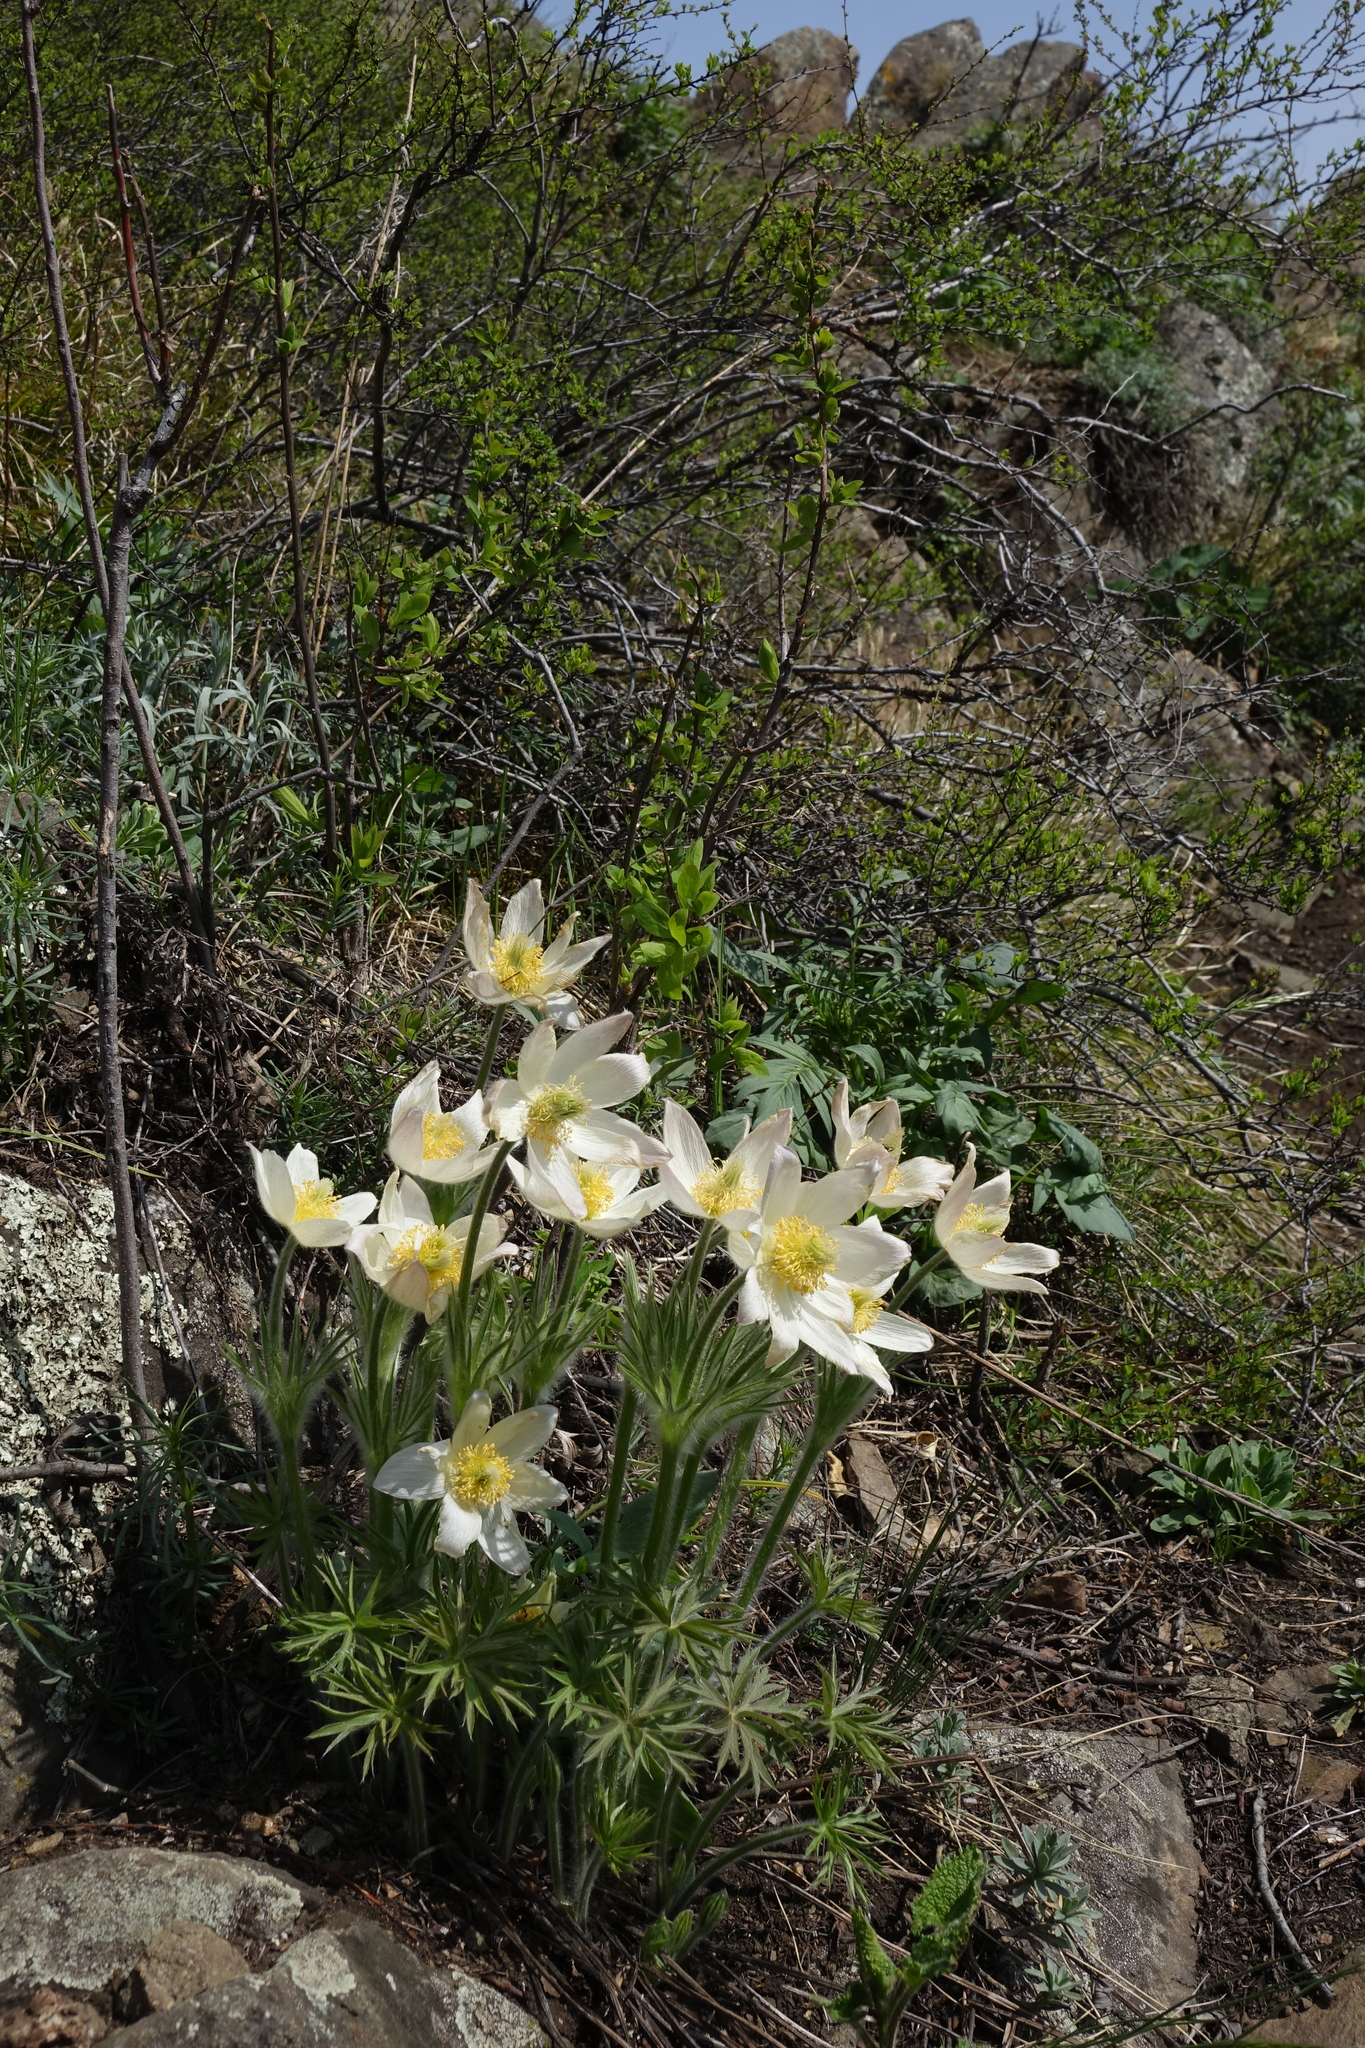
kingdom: Plantae
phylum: Tracheophyta
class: Magnoliopsida
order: Ranunculales
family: Ranunculaceae
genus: Pulsatilla
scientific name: Pulsatilla patens
